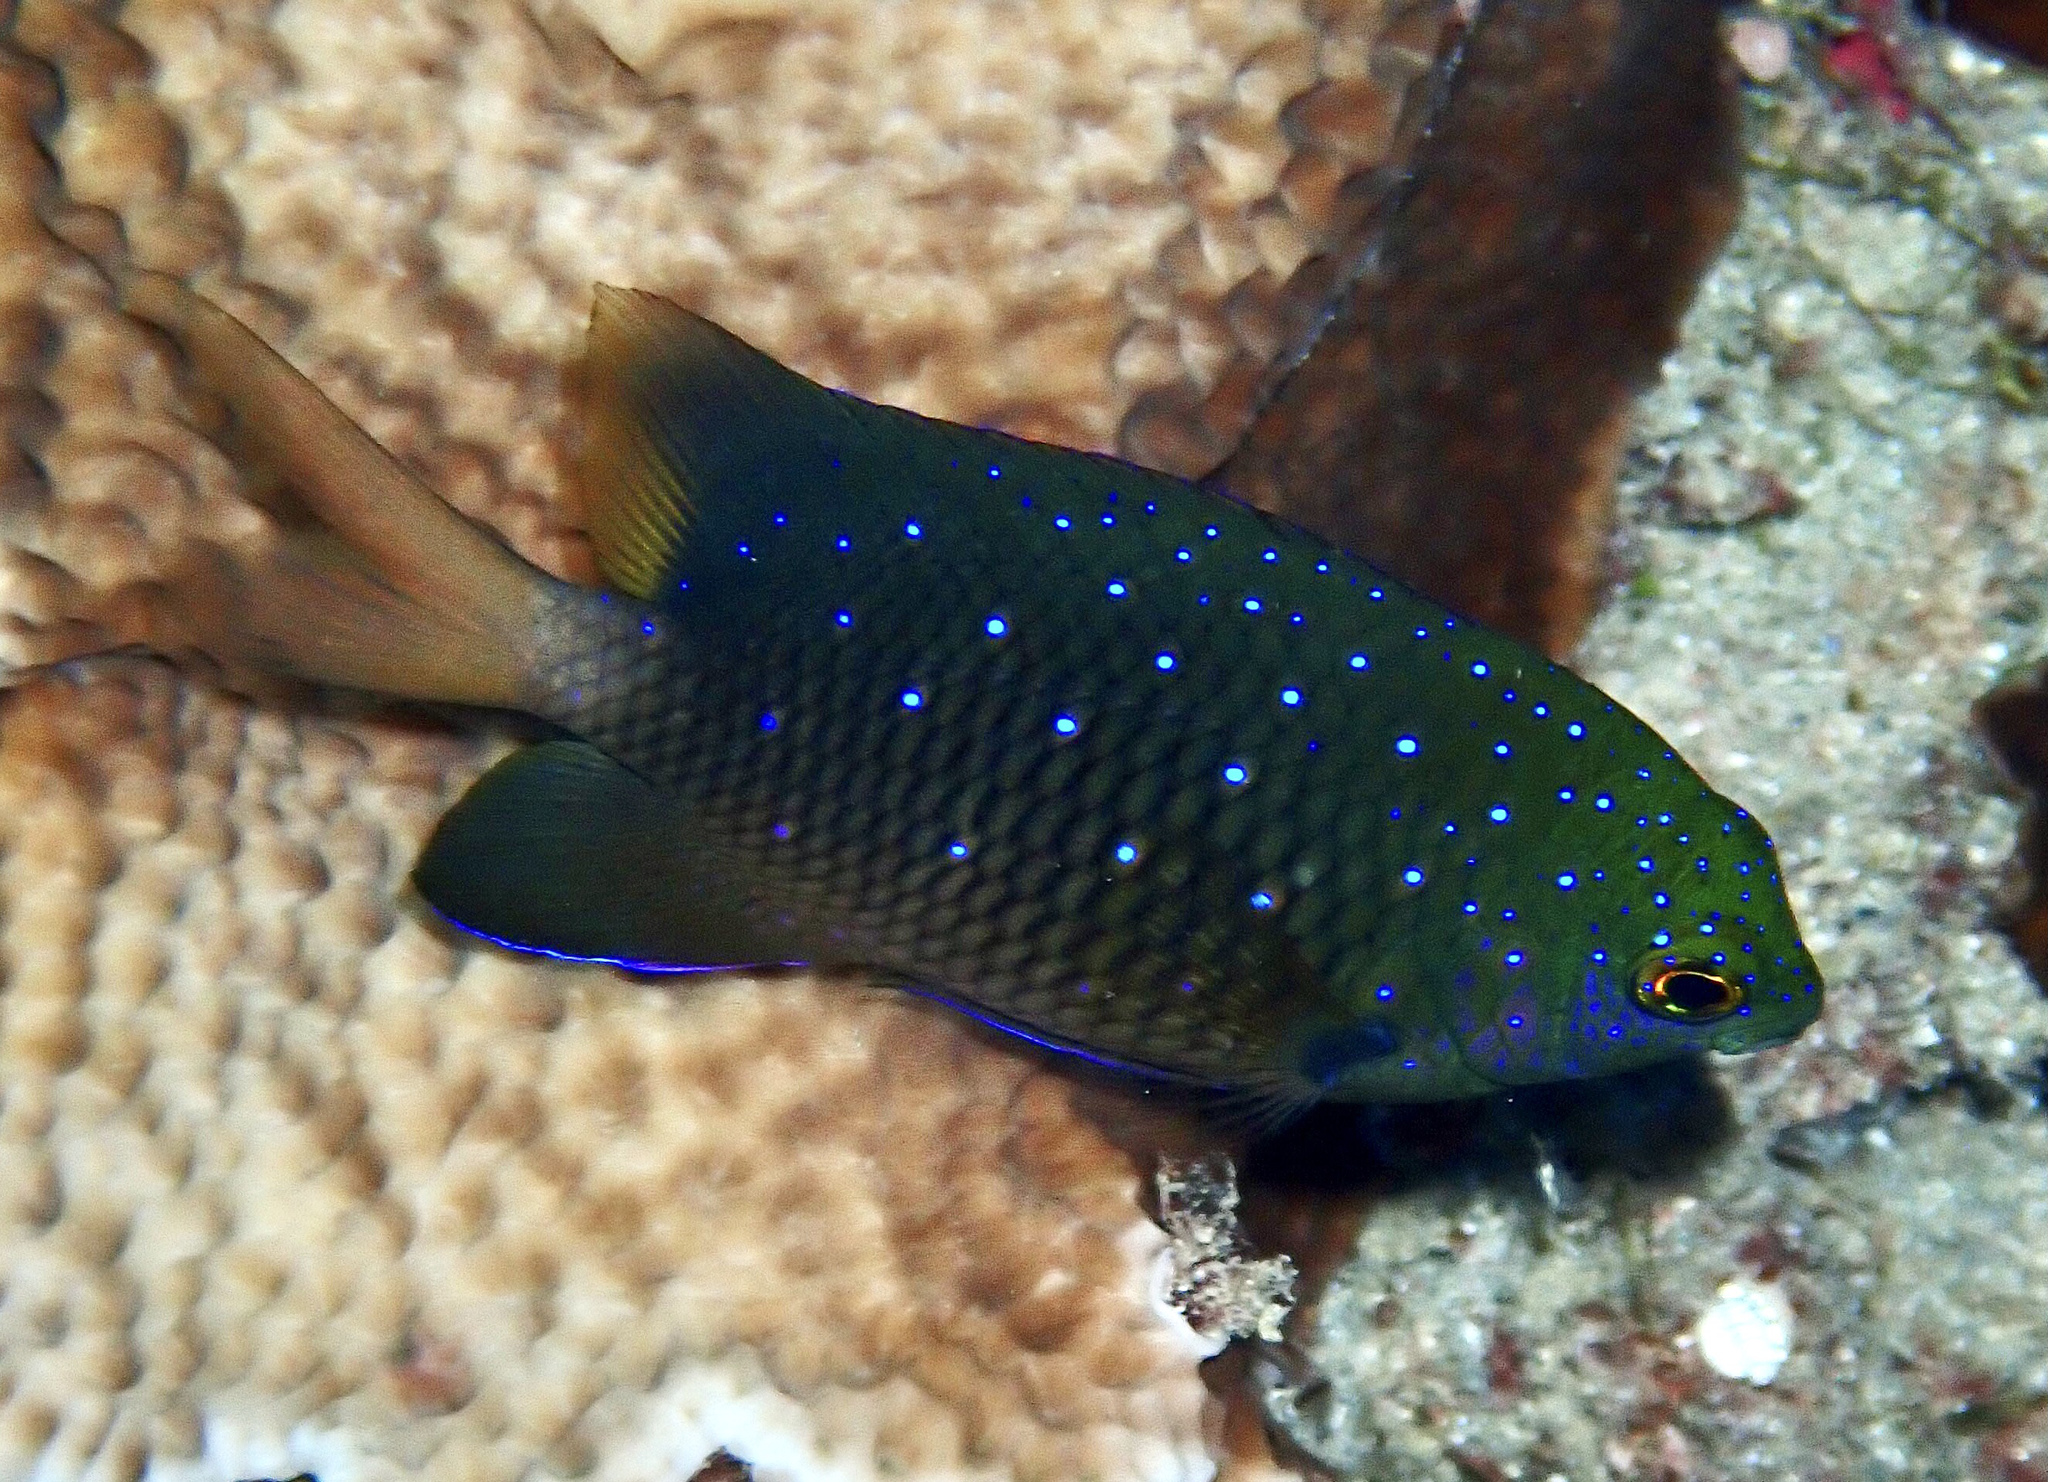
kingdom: Animalia
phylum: Chordata
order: Perciformes
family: Pomacentridae
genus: Plectroglyphidodon
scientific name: Plectroglyphidodon lacrymatus
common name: Jewel damsel
